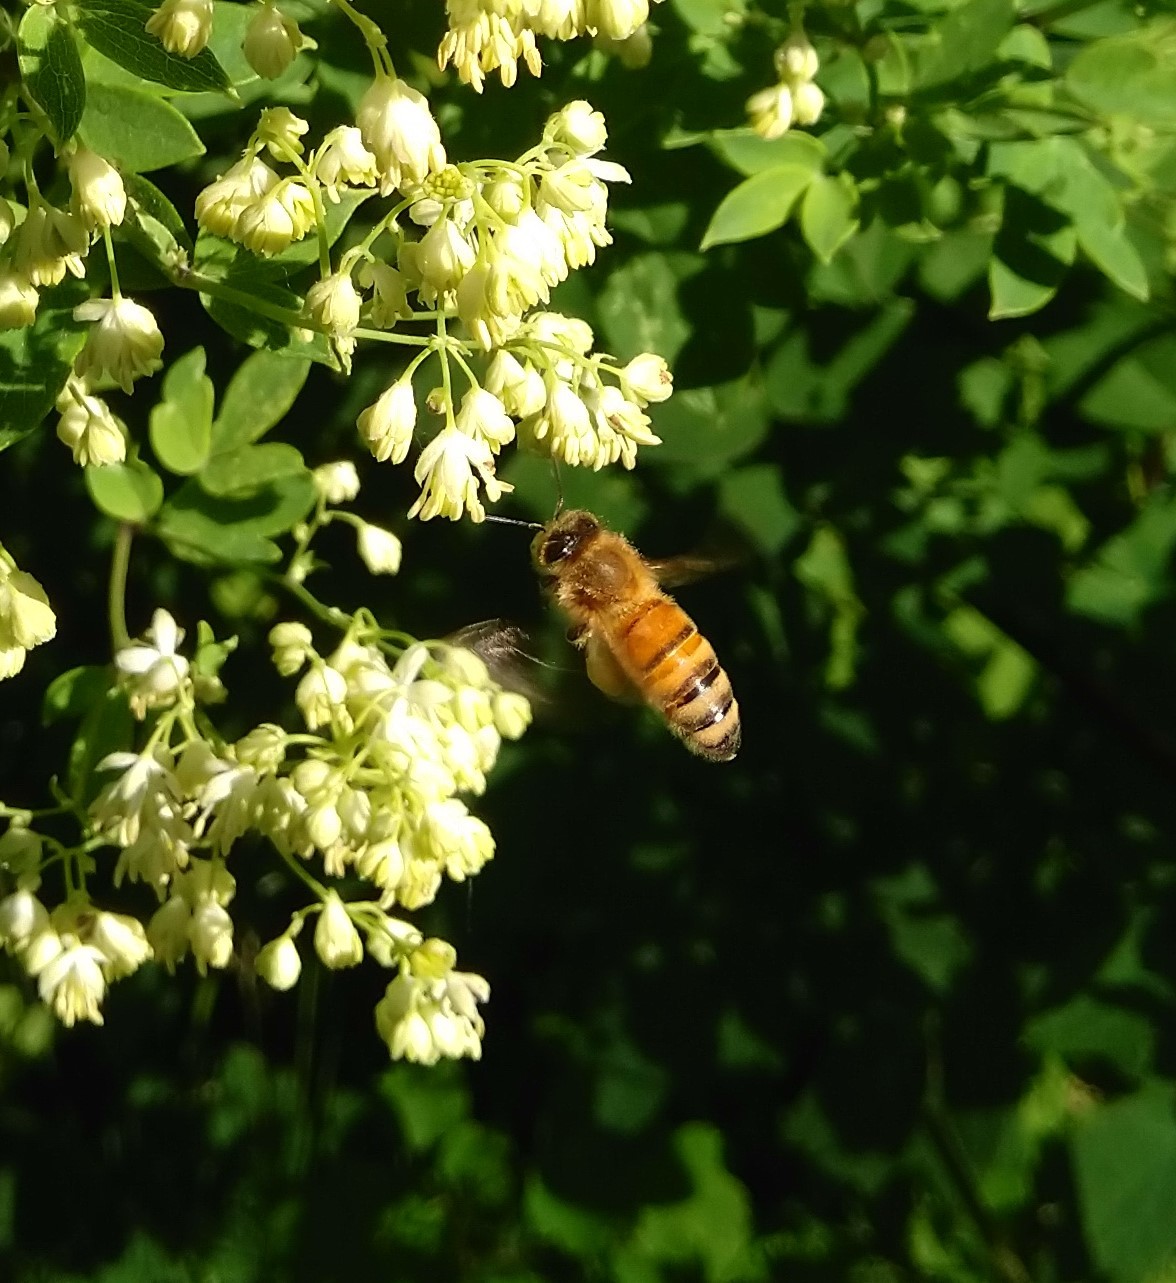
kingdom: Animalia
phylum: Arthropoda
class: Insecta
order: Hymenoptera
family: Apidae
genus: Apis
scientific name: Apis mellifera
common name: Honey bee
